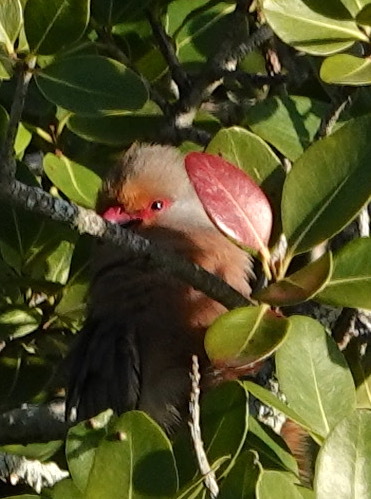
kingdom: Animalia
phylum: Chordata
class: Aves
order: Coliiformes
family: Coliidae
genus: Urocolius
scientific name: Urocolius indicus
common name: Red-faced mousebird
